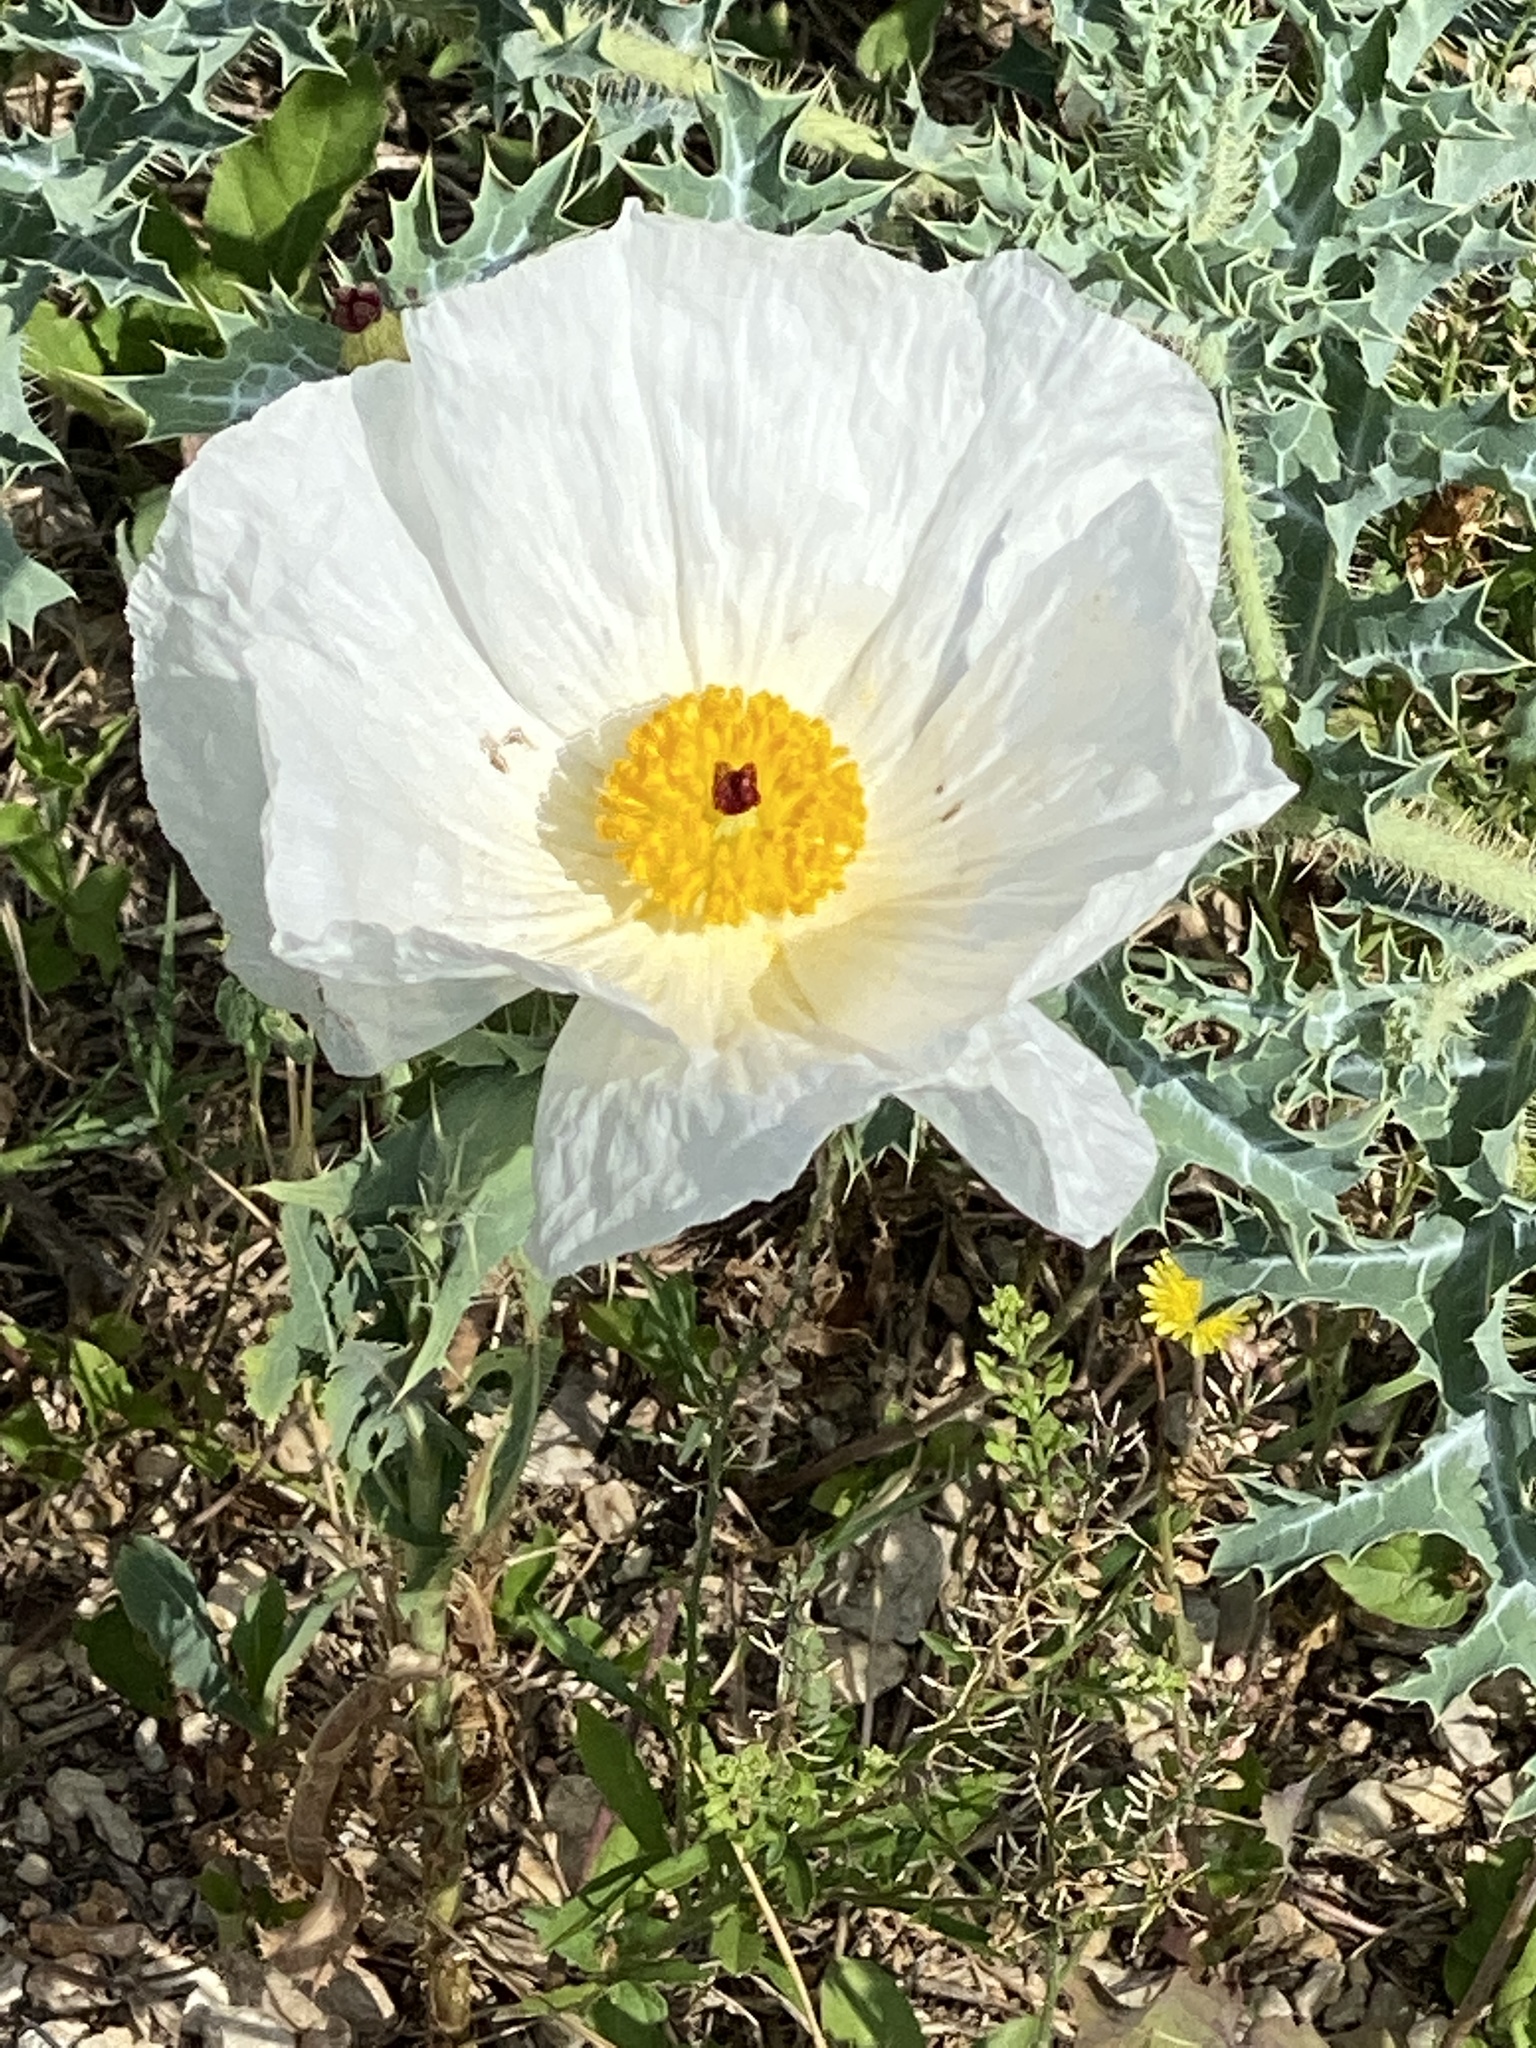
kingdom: Plantae
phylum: Tracheophyta
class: Magnoliopsida
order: Ranunculales
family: Papaveraceae
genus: Argemone
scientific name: Argemone albiflora
